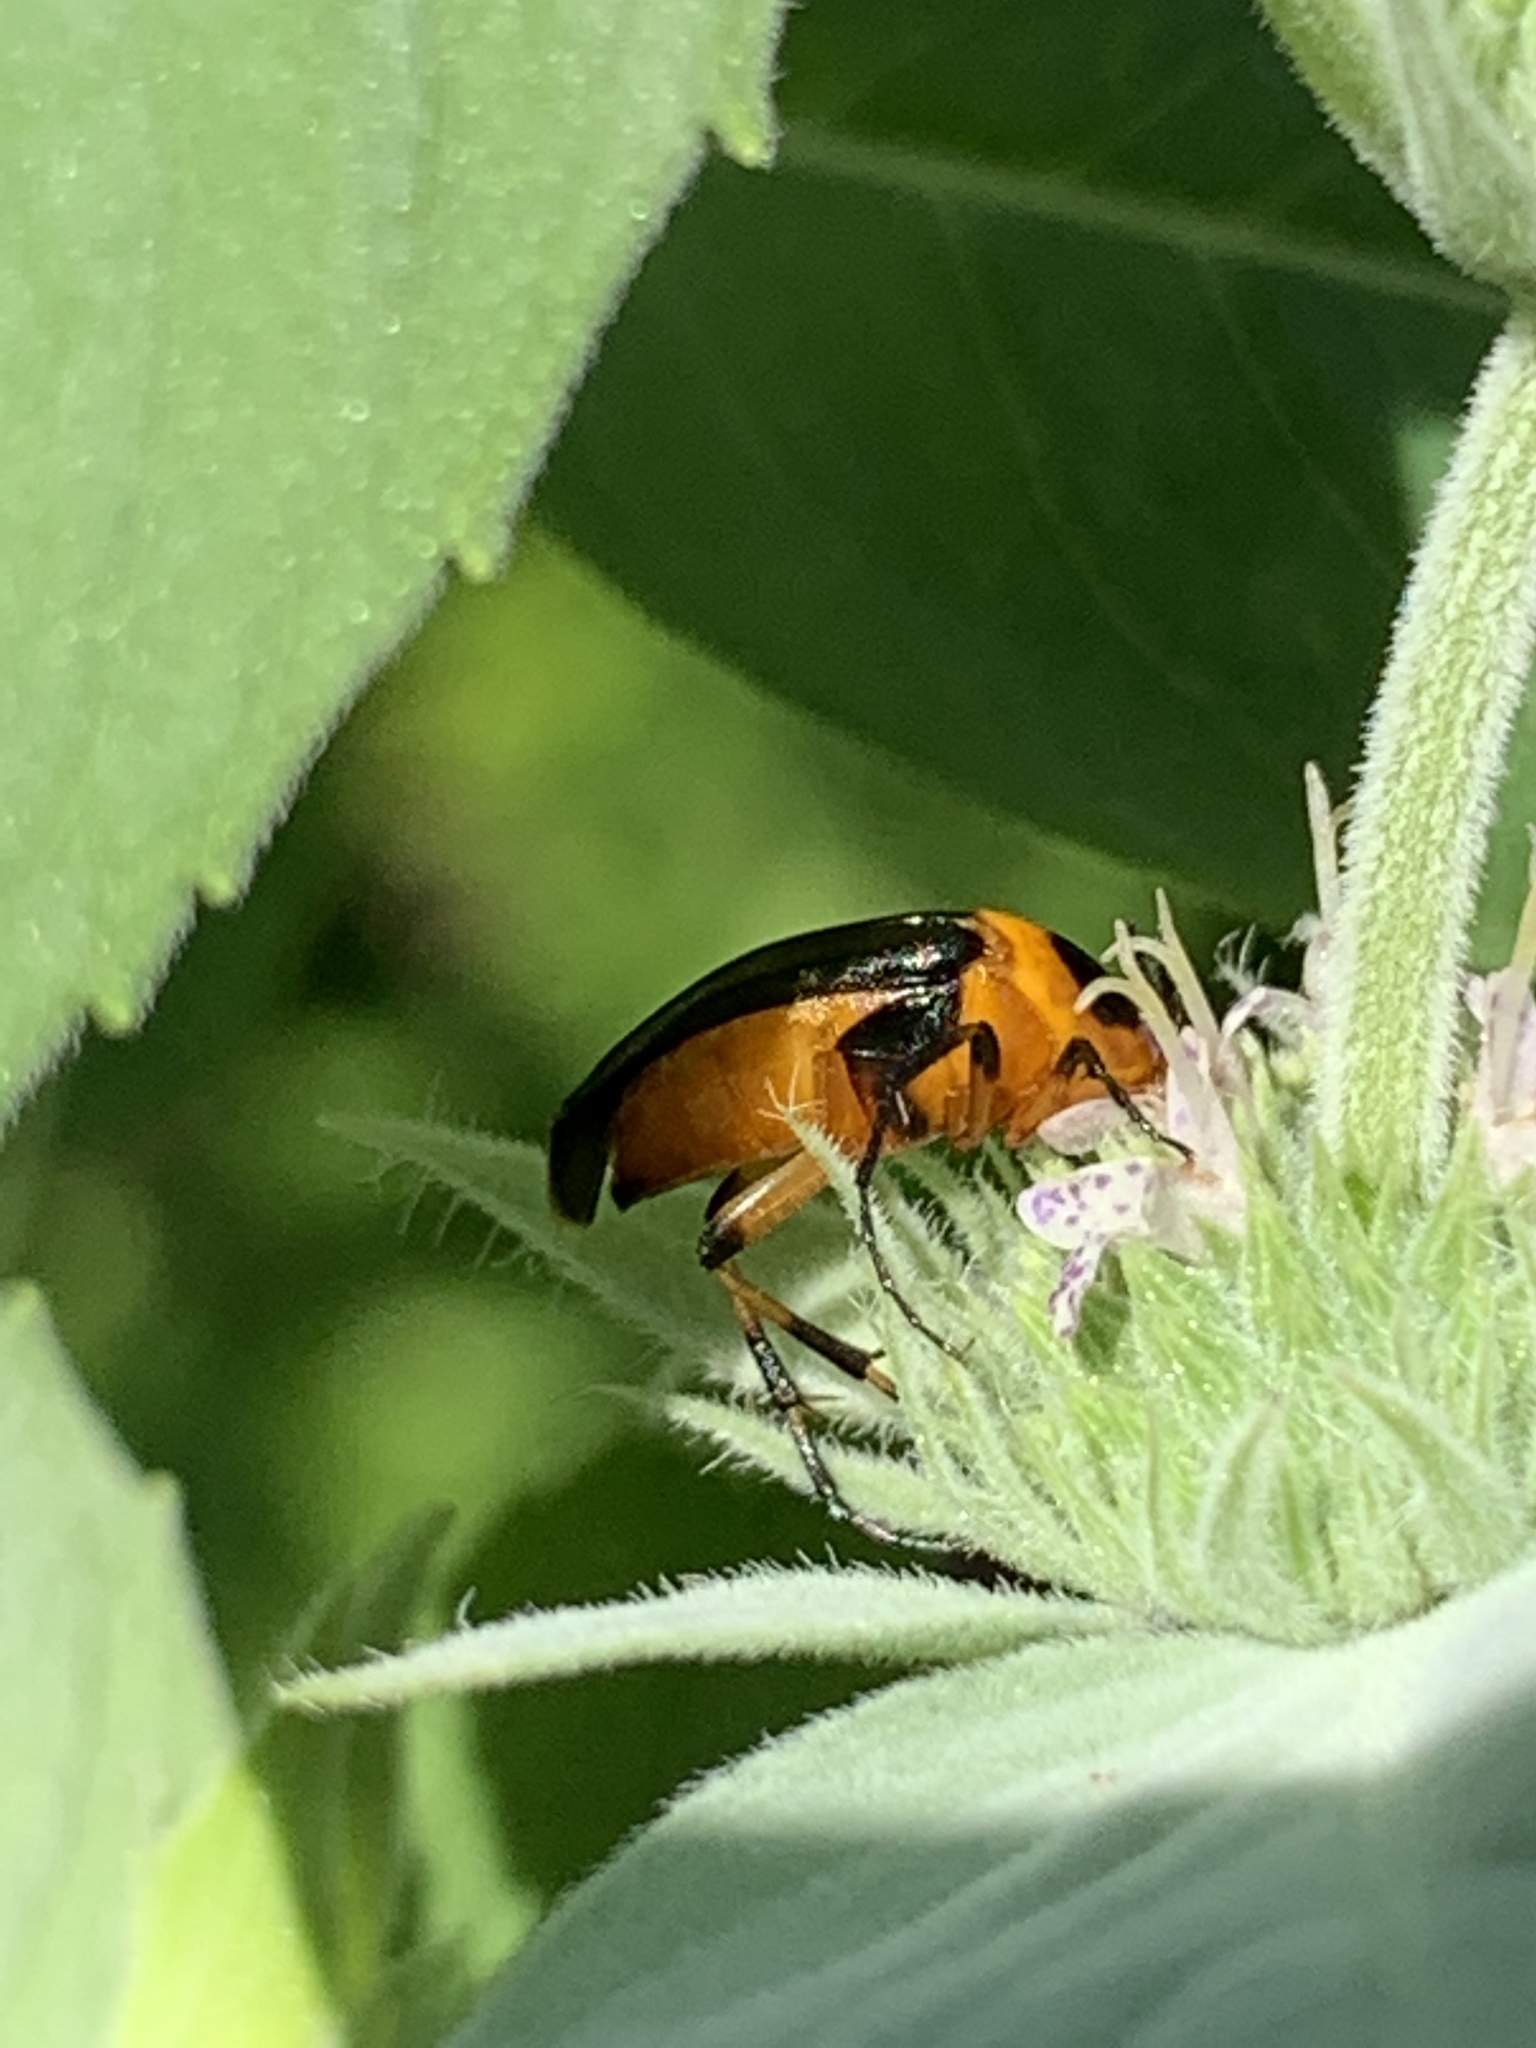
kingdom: Animalia
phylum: Arthropoda
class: Insecta
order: Coleoptera
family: Ripiphoridae
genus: Macrosiagon
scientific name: Macrosiagon limbatum
